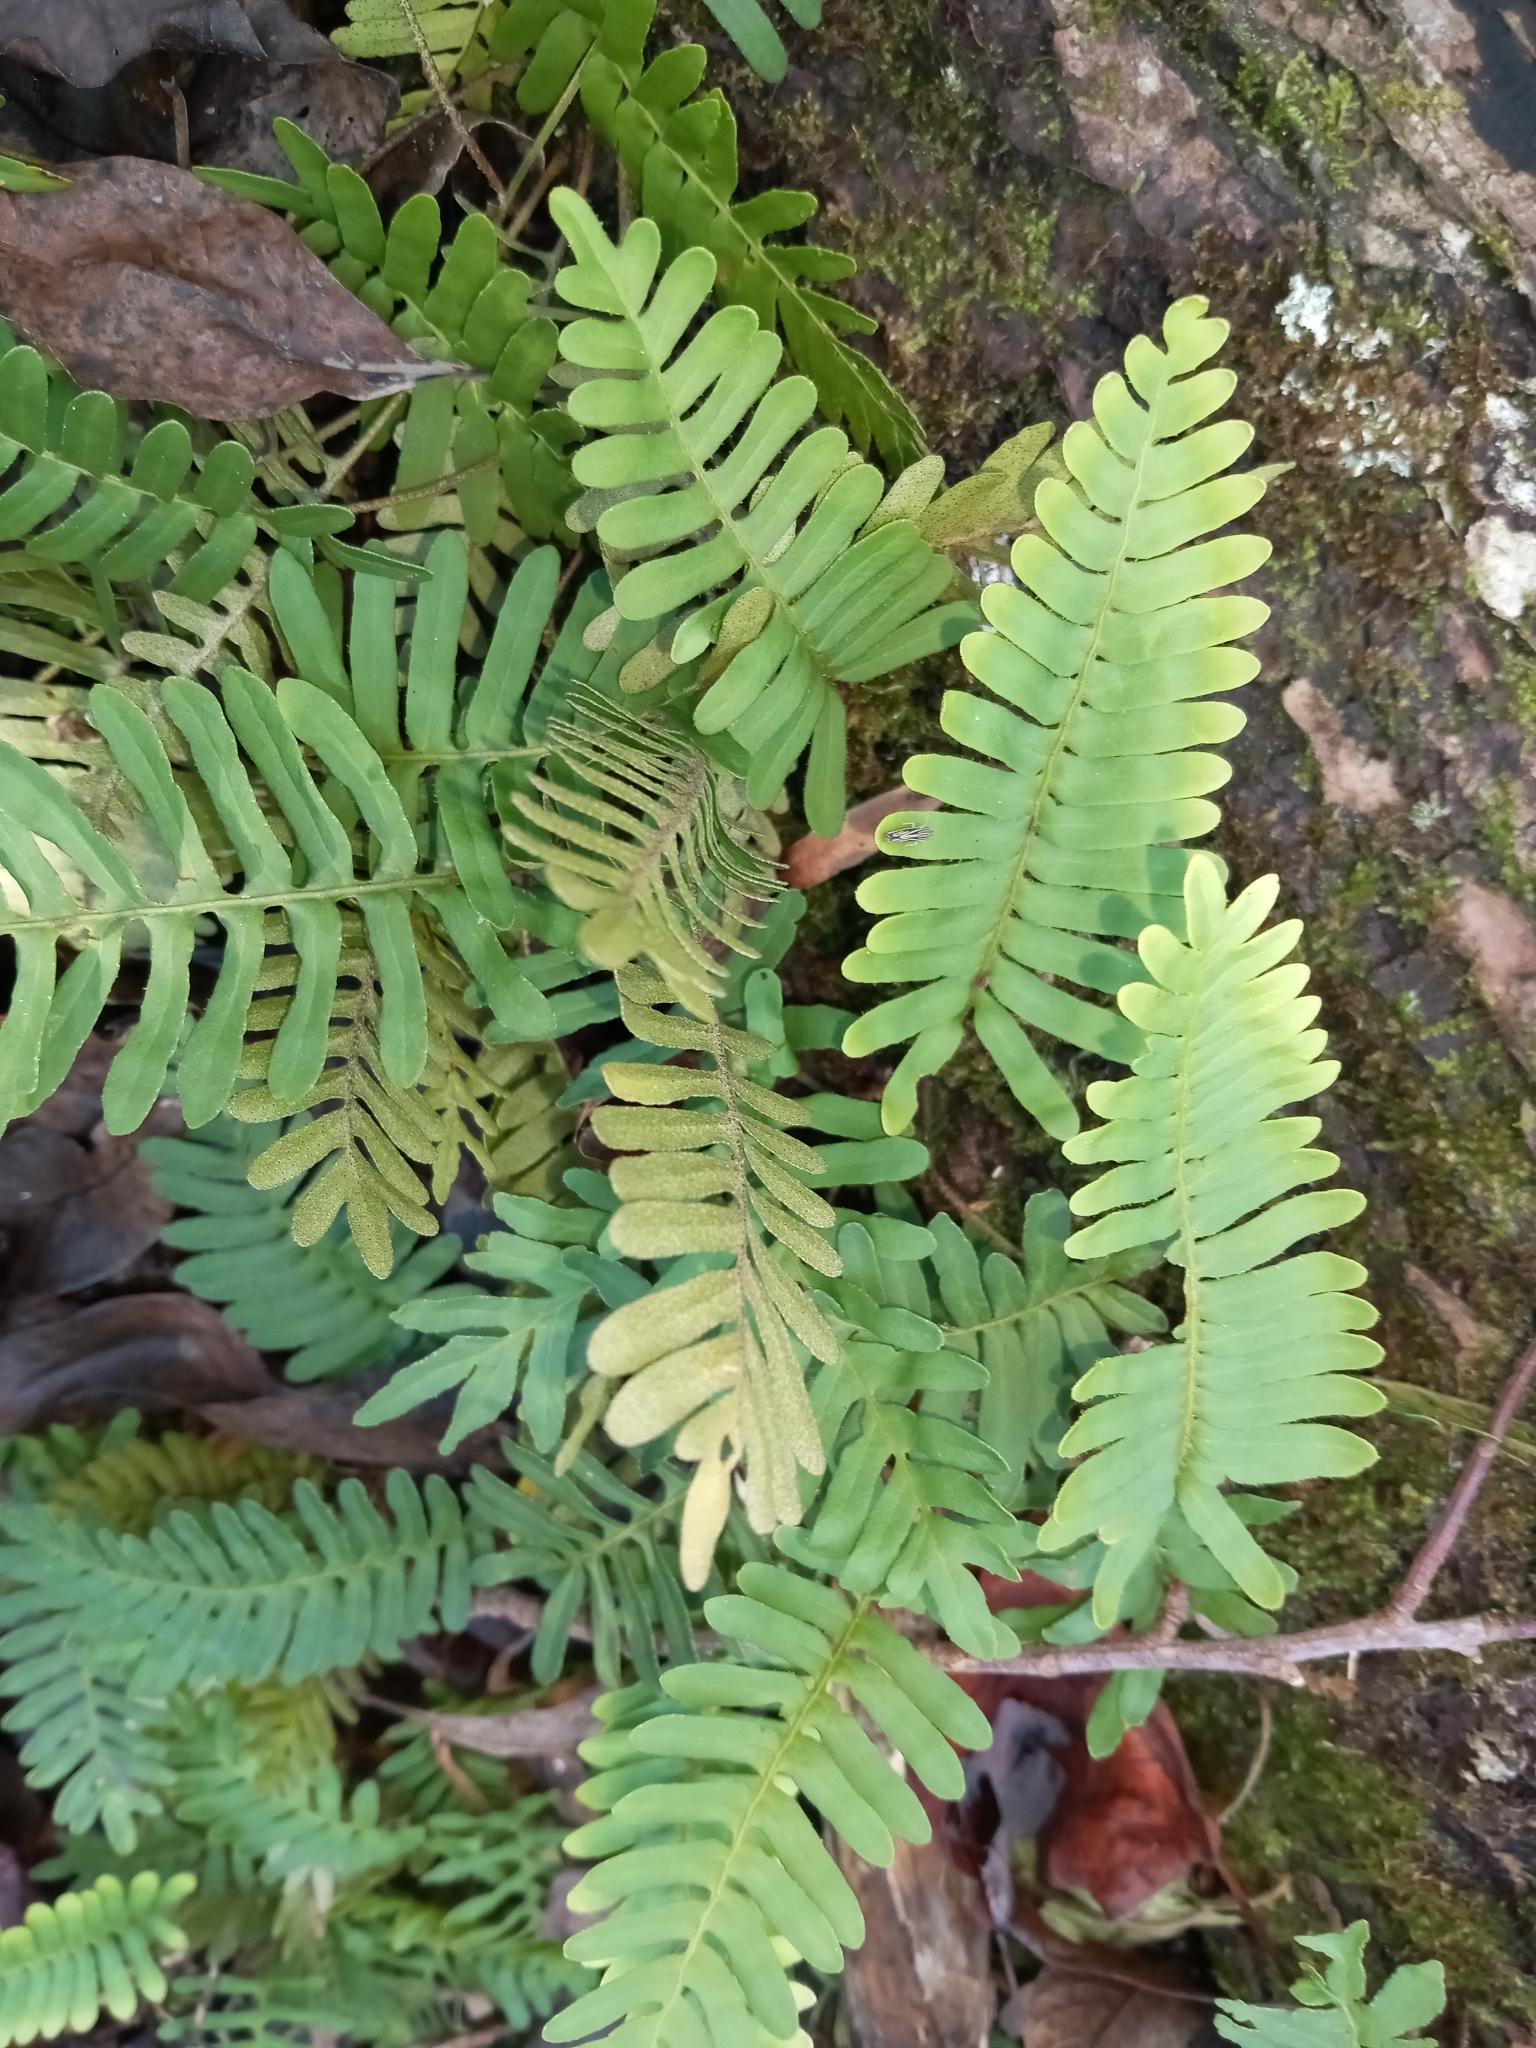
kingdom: Plantae
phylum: Tracheophyta
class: Polypodiopsida
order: Polypodiales
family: Polypodiaceae
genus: Pleopeltis
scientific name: Pleopeltis michauxiana
